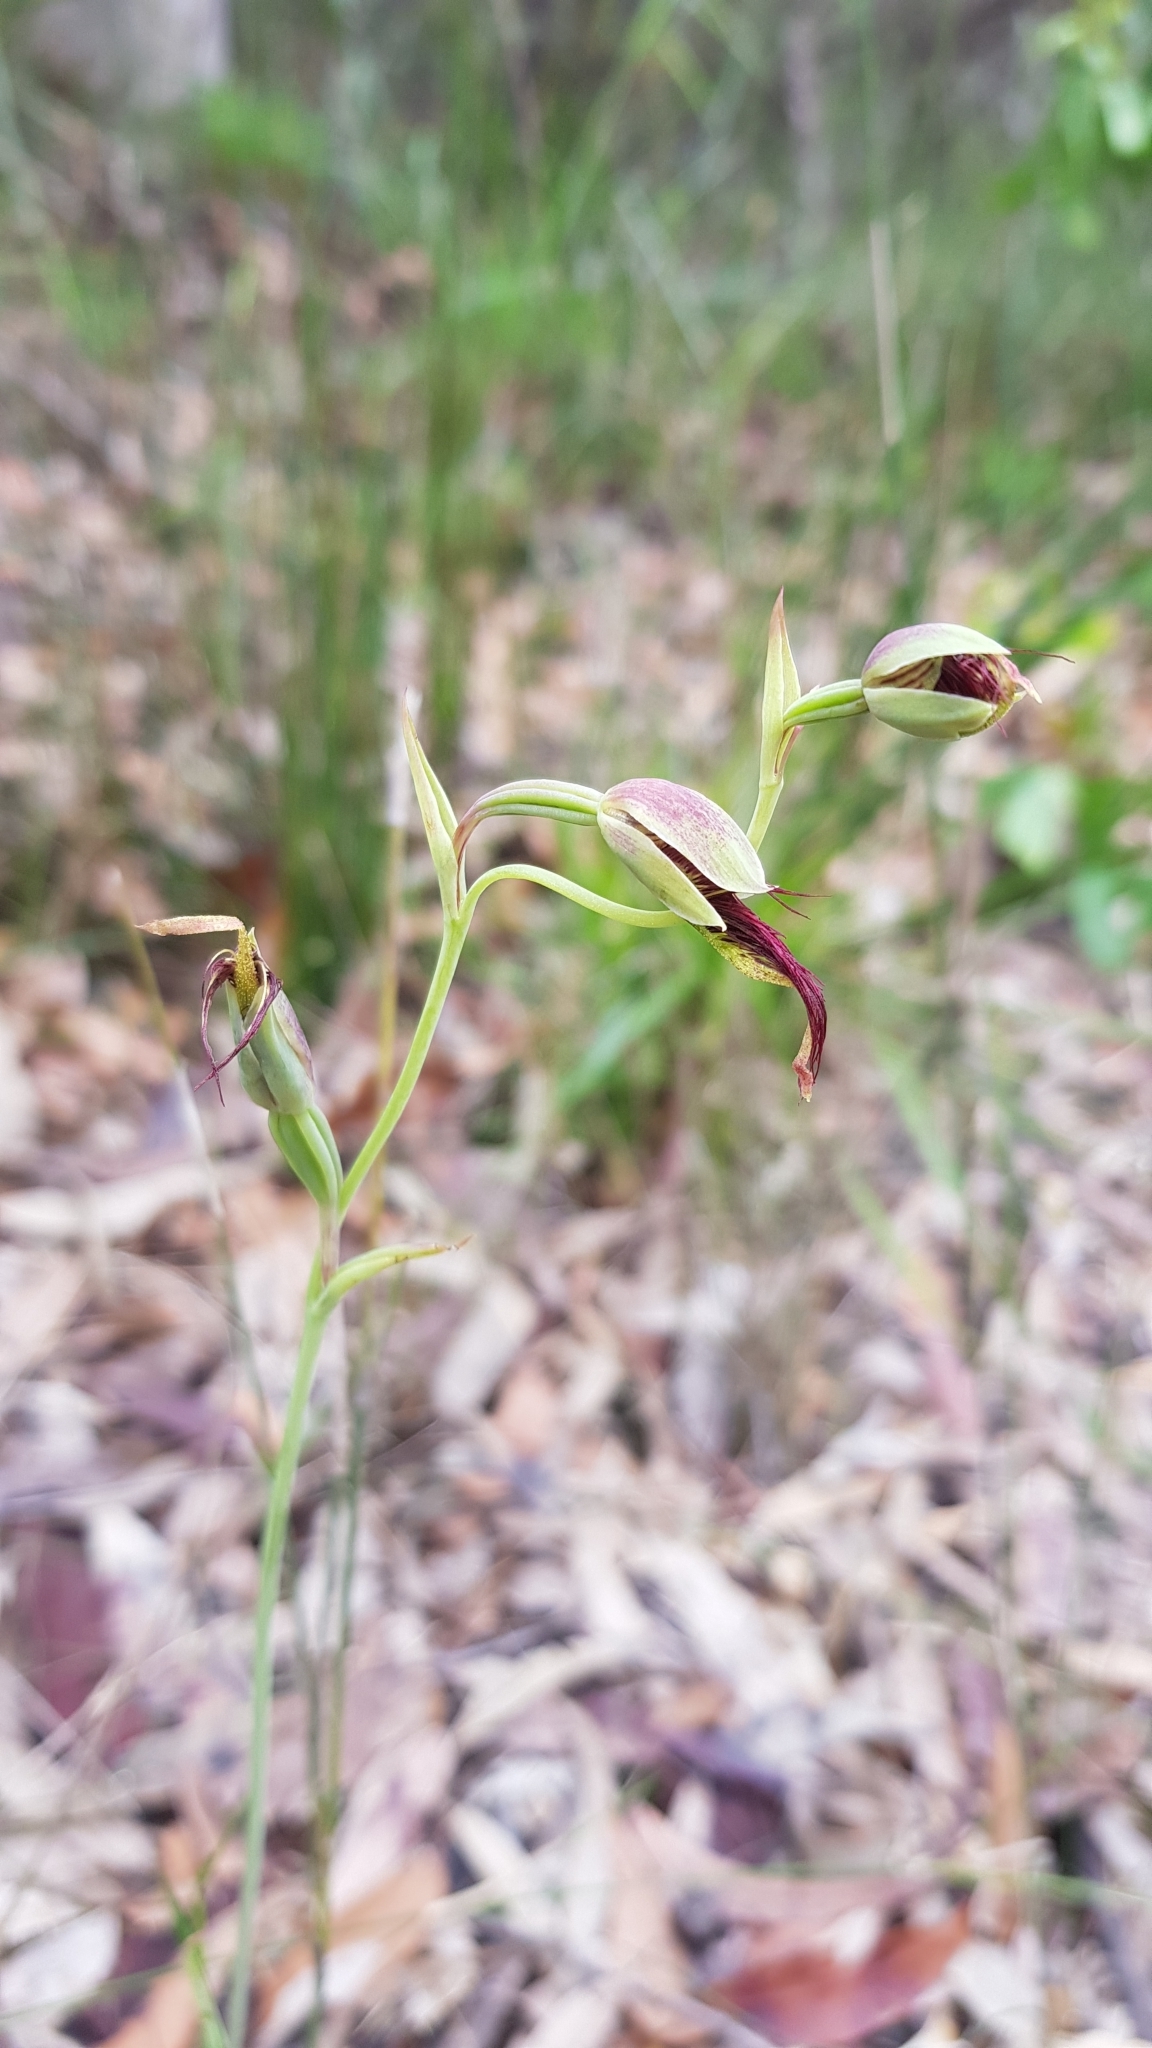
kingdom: Plantae
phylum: Tracheophyta
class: Liliopsida
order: Asparagales
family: Orchidaceae
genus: Calochilus
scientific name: Calochilus paludosus
